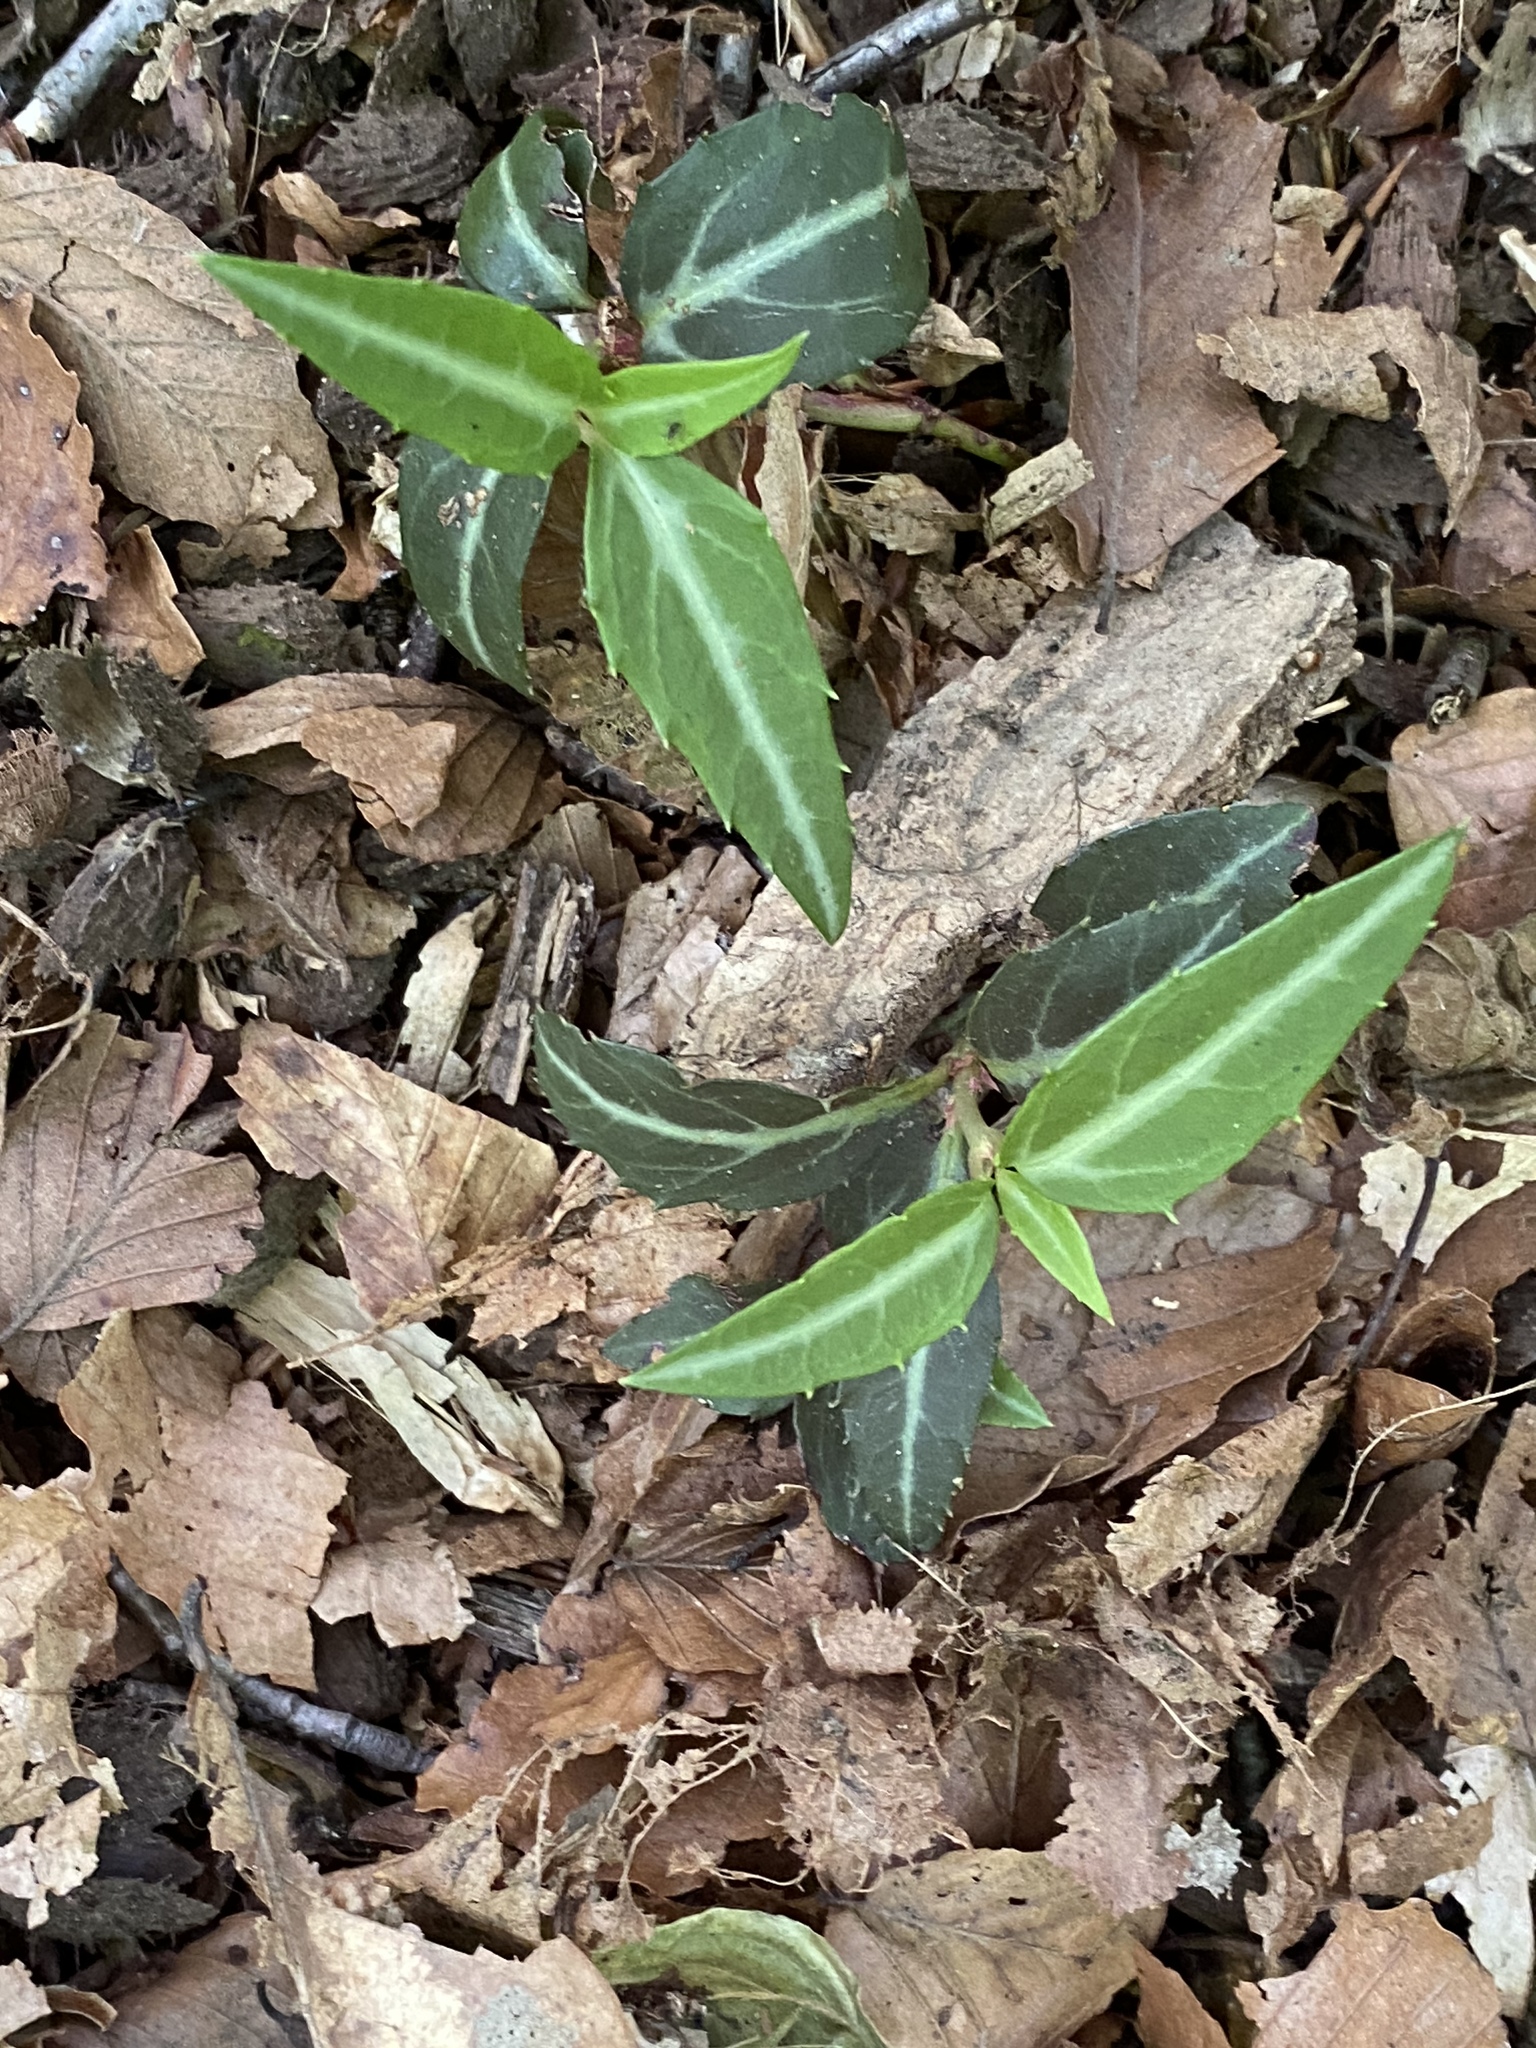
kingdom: Plantae
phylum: Tracheophyta
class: Magnoliopsida
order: Ericales
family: Ericaceae
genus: Chimaphila
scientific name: Chimaphila maculata
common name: Spotted pipsissewa
